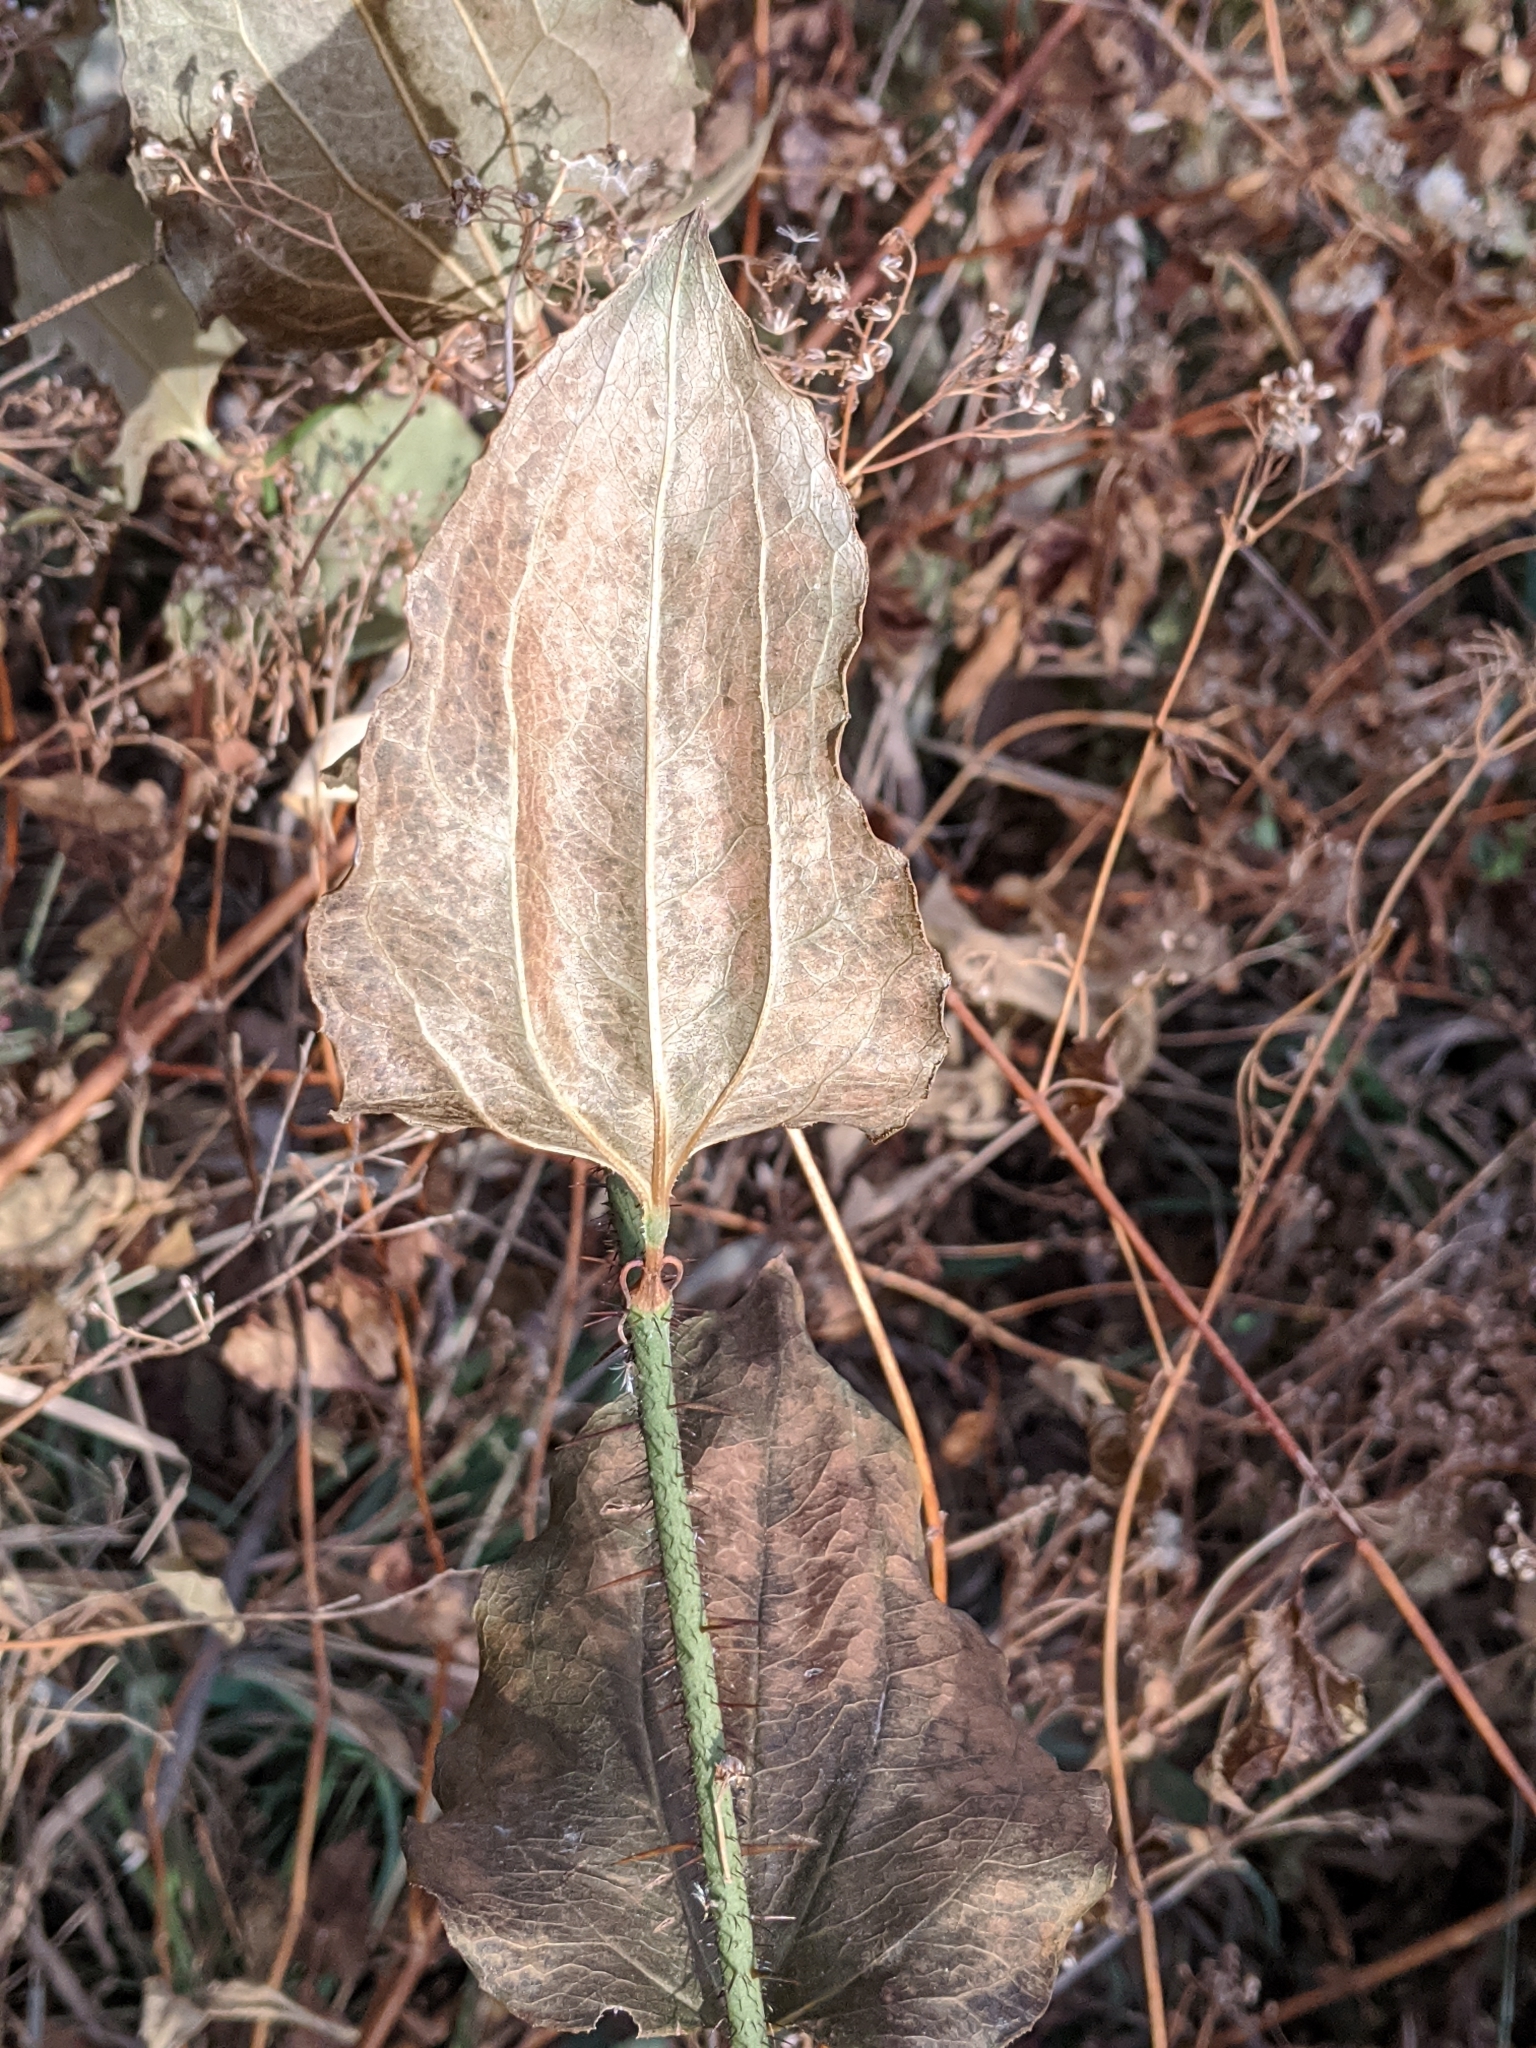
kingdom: Plantae
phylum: Tracheophyta
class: Liliopsida
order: Liliales
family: Smilacaceae
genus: Smilax
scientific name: Smilax tamnoides
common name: Hellfetter
